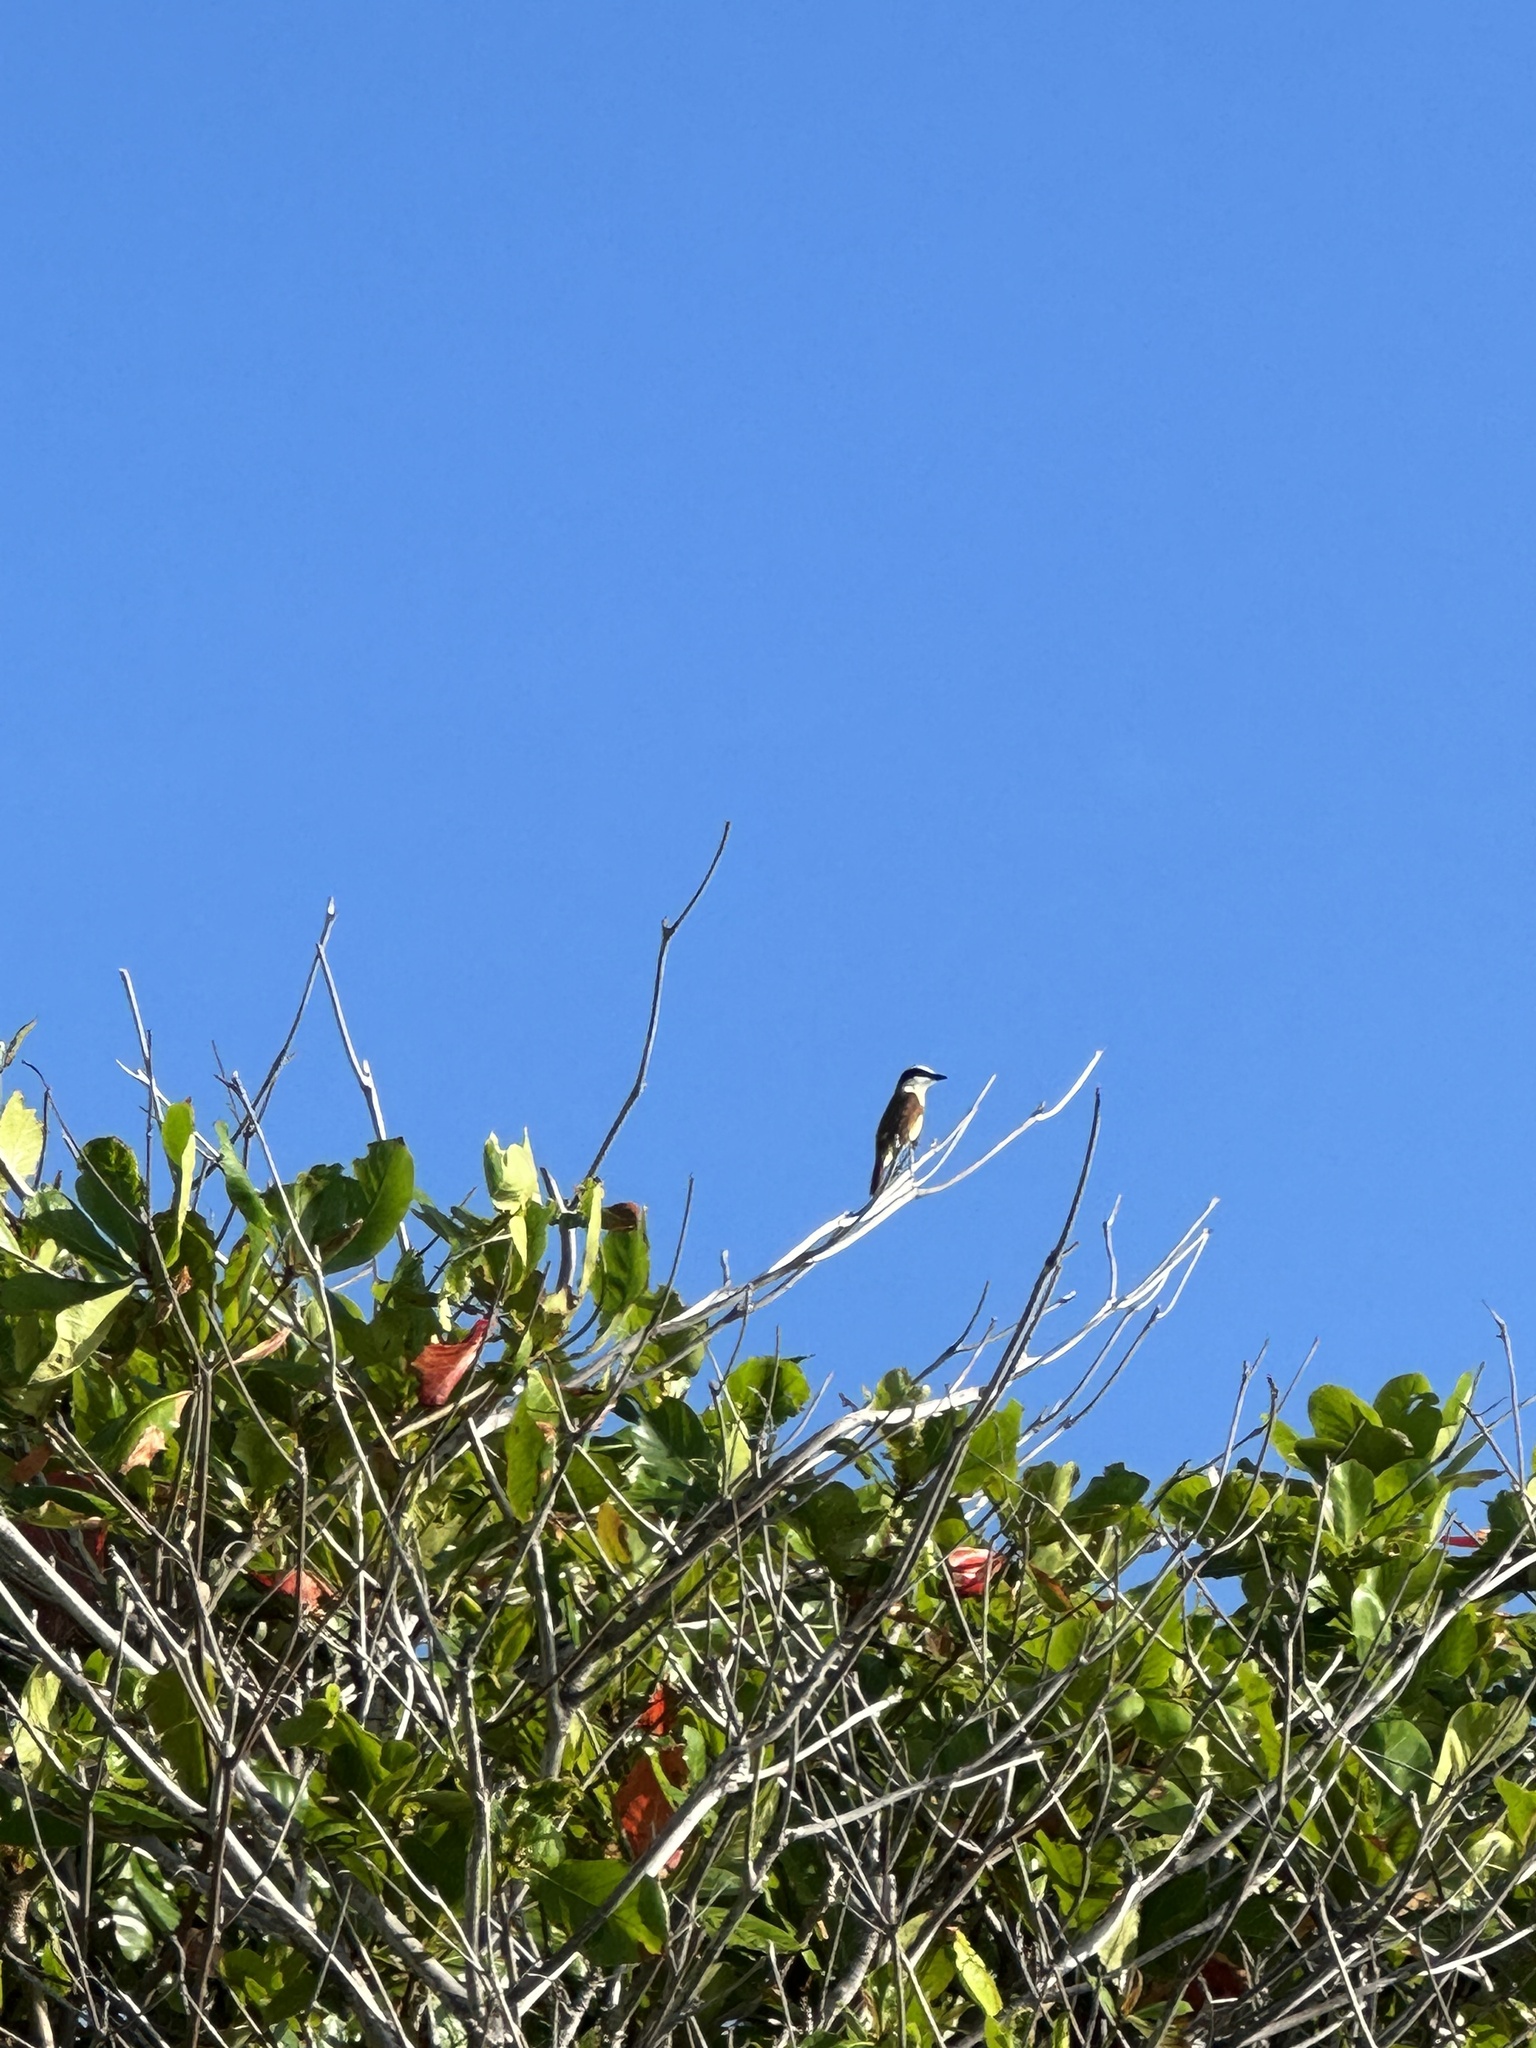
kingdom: Animalia
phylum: Chordata
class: Aves
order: Passeriformes
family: Tyrannidae
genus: Pitangus
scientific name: Pitangus sulphuratus
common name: Great kiskadee
